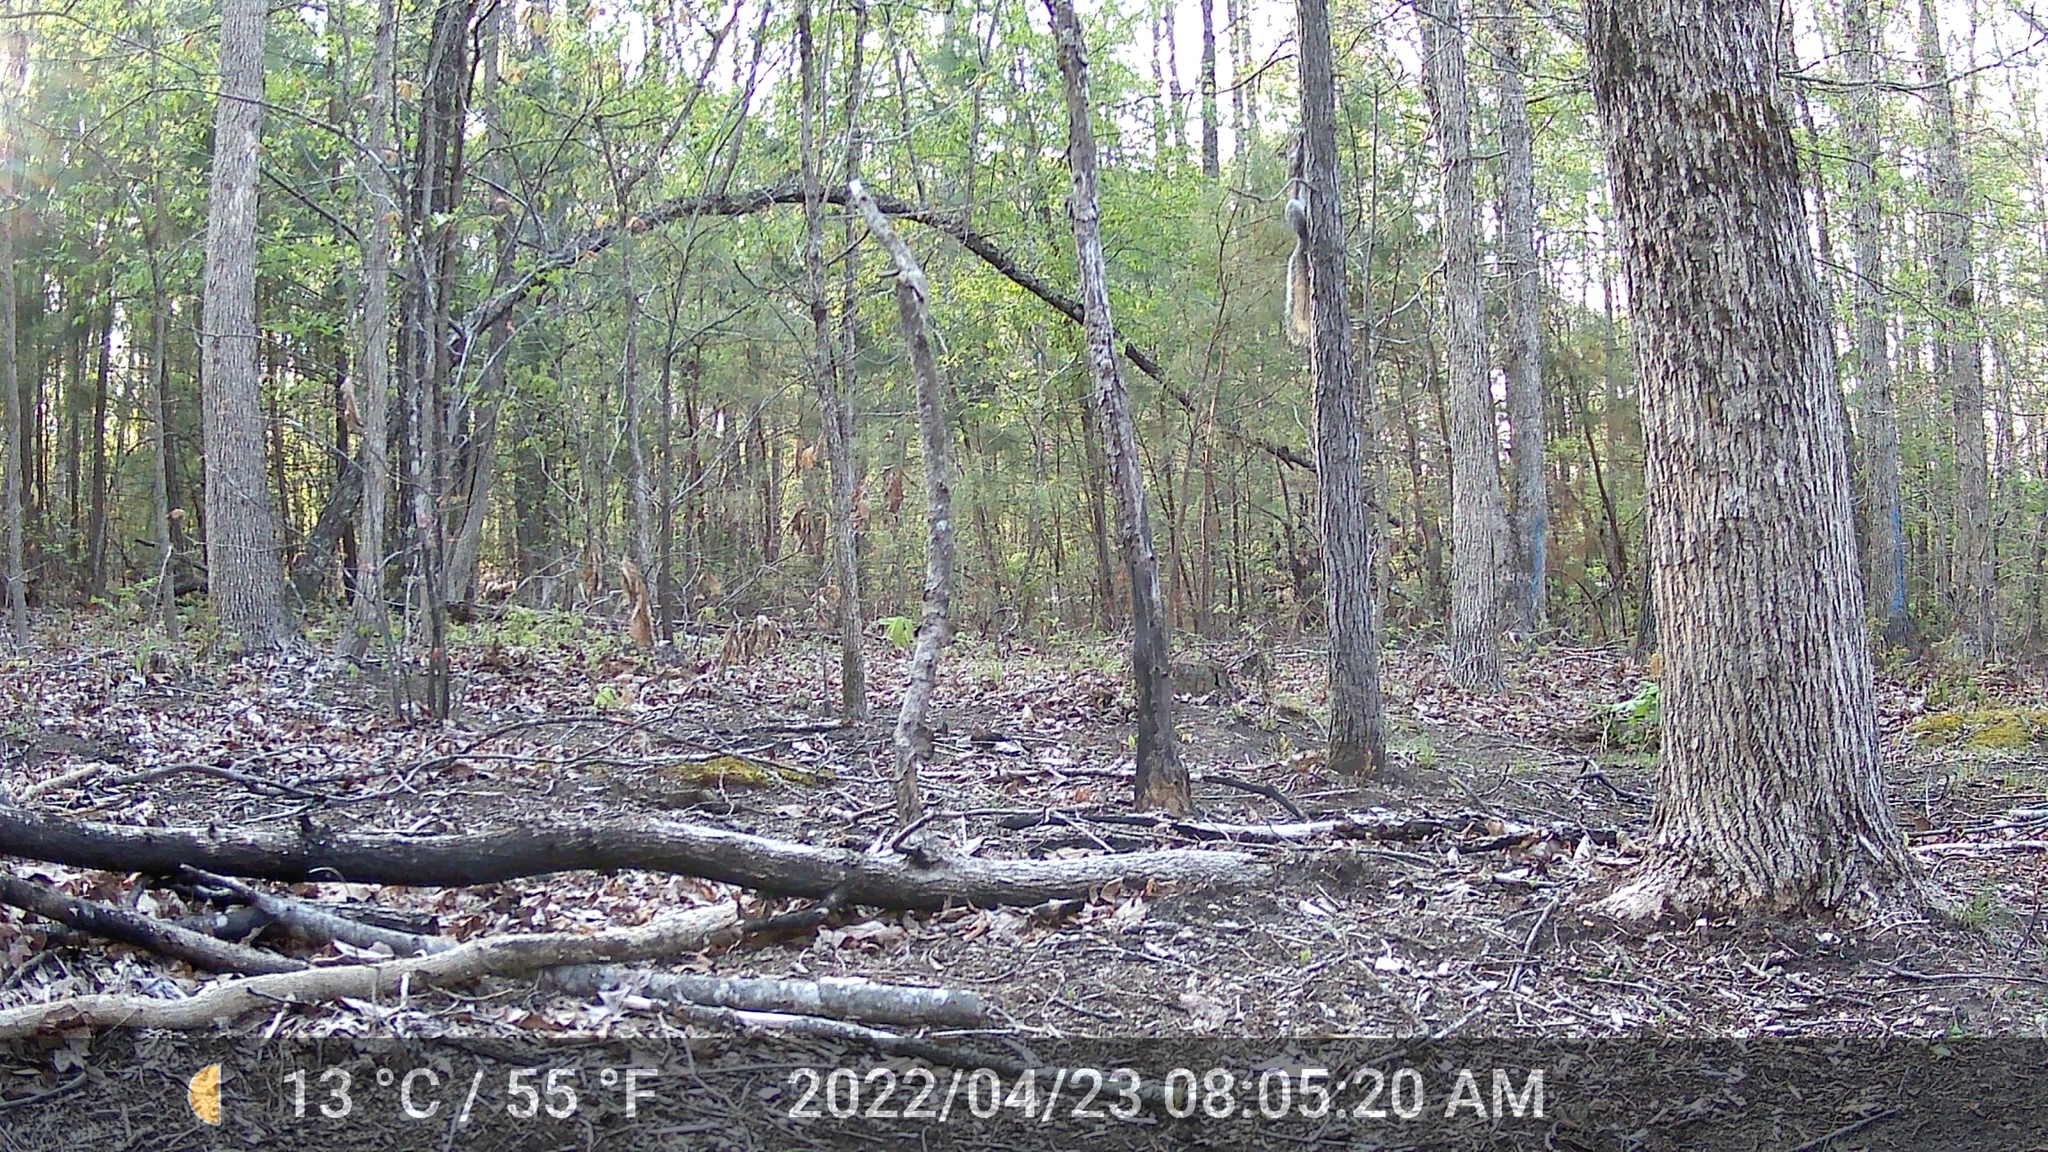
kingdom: Animalia
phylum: Chordata
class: Mammalia
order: Rodentia
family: Sciuridae
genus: Sciurus
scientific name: Sciurus carolinensis
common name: Eastern gray squirrel
